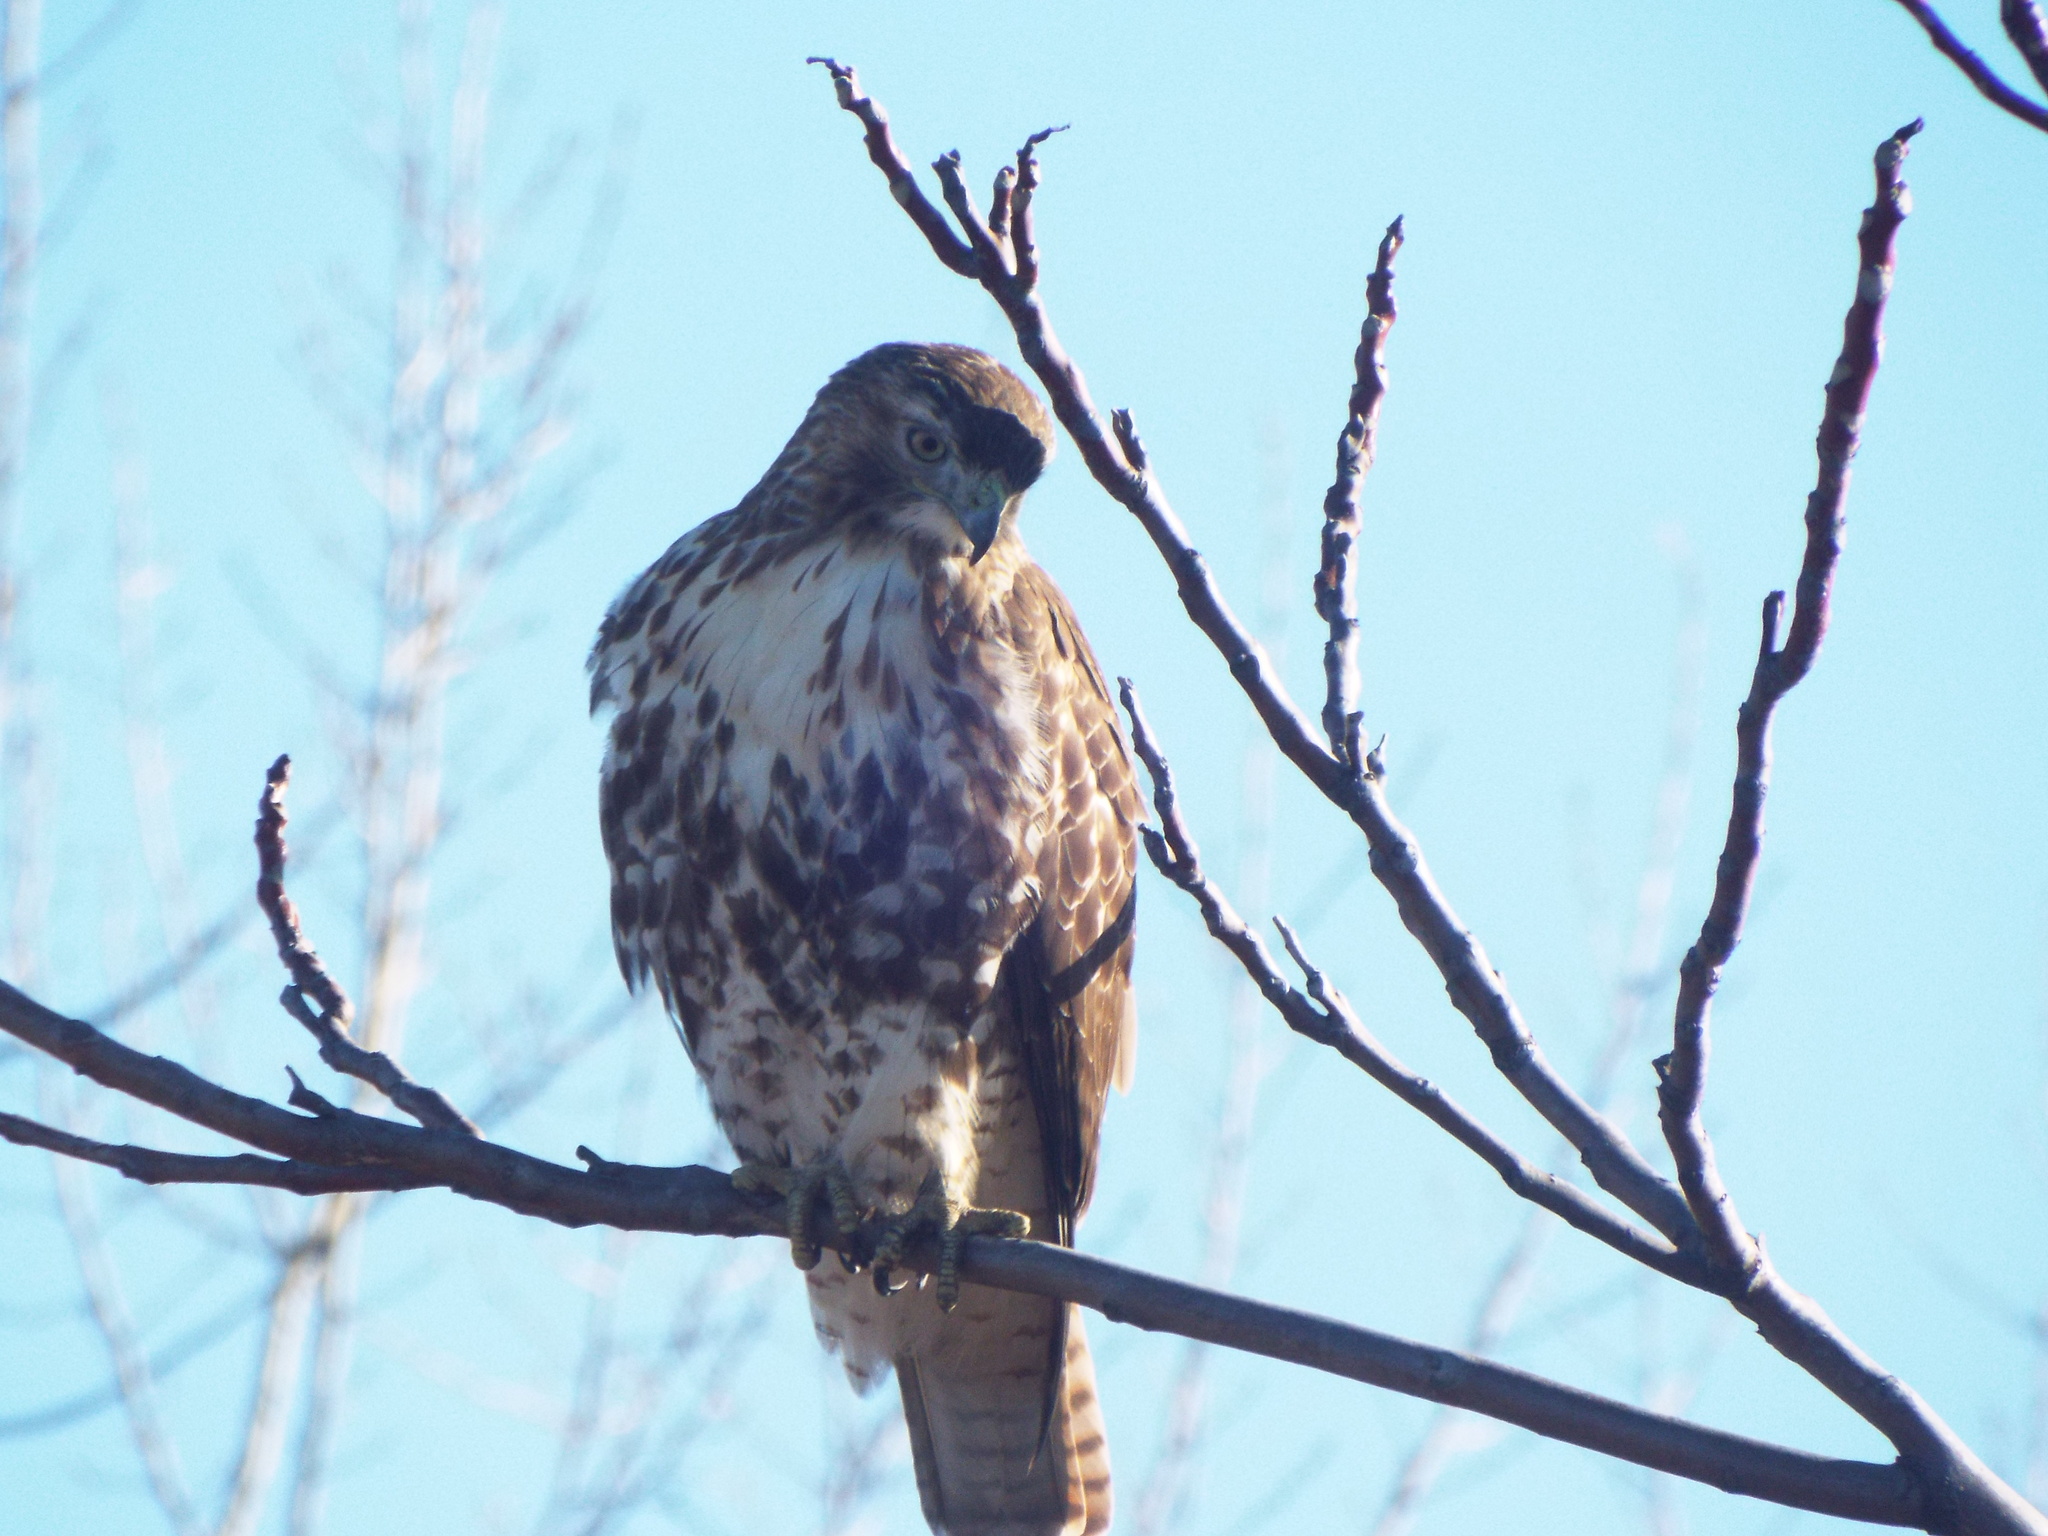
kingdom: Animalia
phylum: Chordata
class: Aves
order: Accipitriformes
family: Accipitridae
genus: Buteo
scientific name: Buteo jamaicensis
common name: Red-tailed hawk
